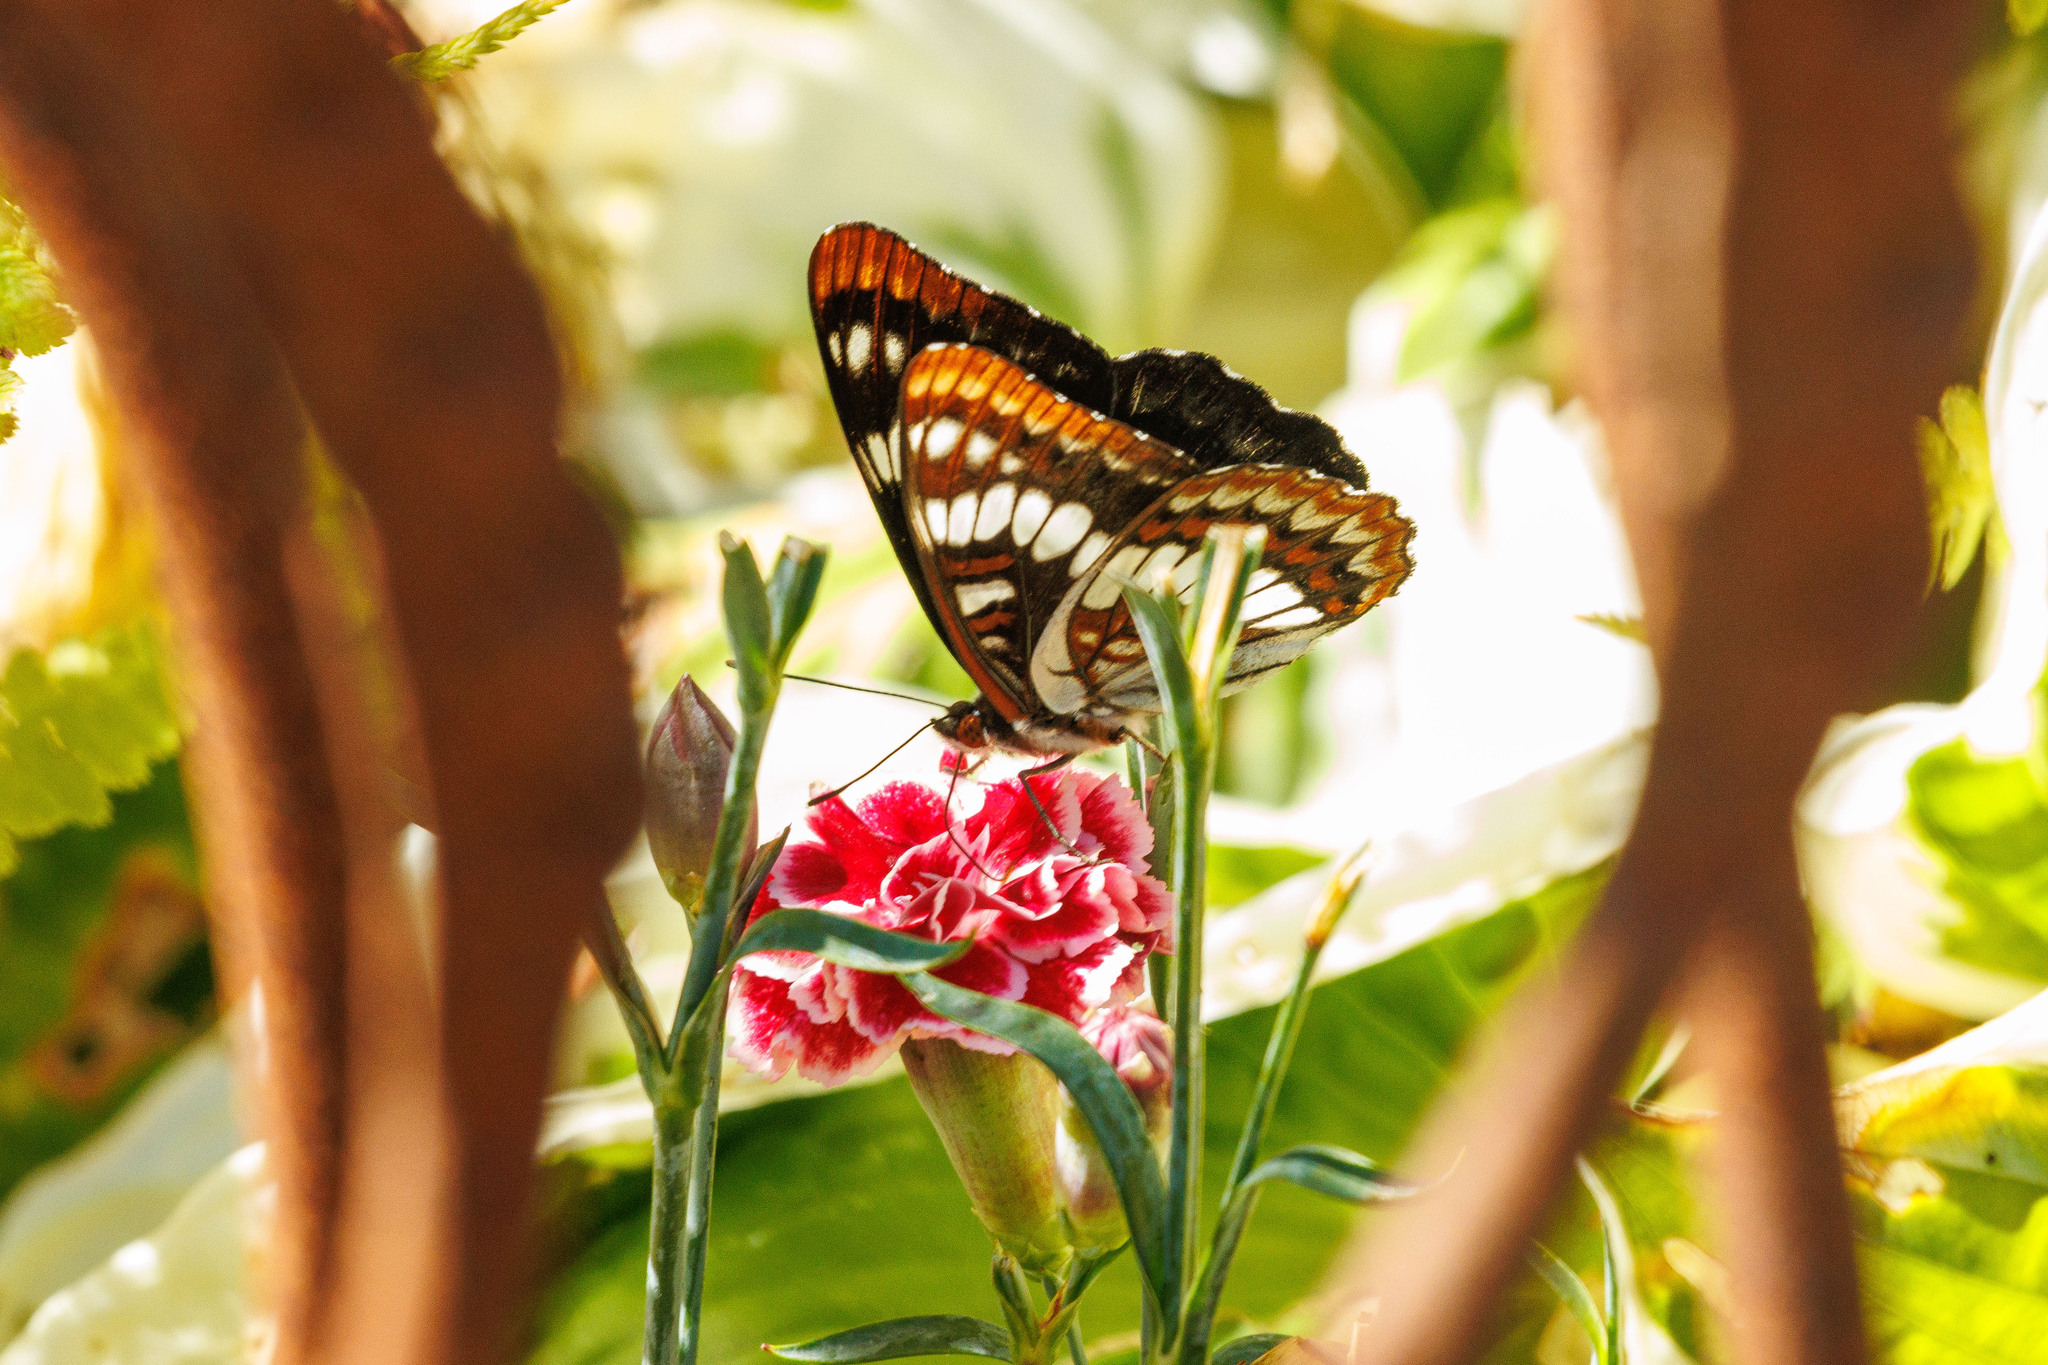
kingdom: Animalia
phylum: Arthropoda
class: Insecta
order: Lepidoptera
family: Nymphalidae
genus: Limenitis
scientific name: Limenitis lorquini
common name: Lorquin's admiral
